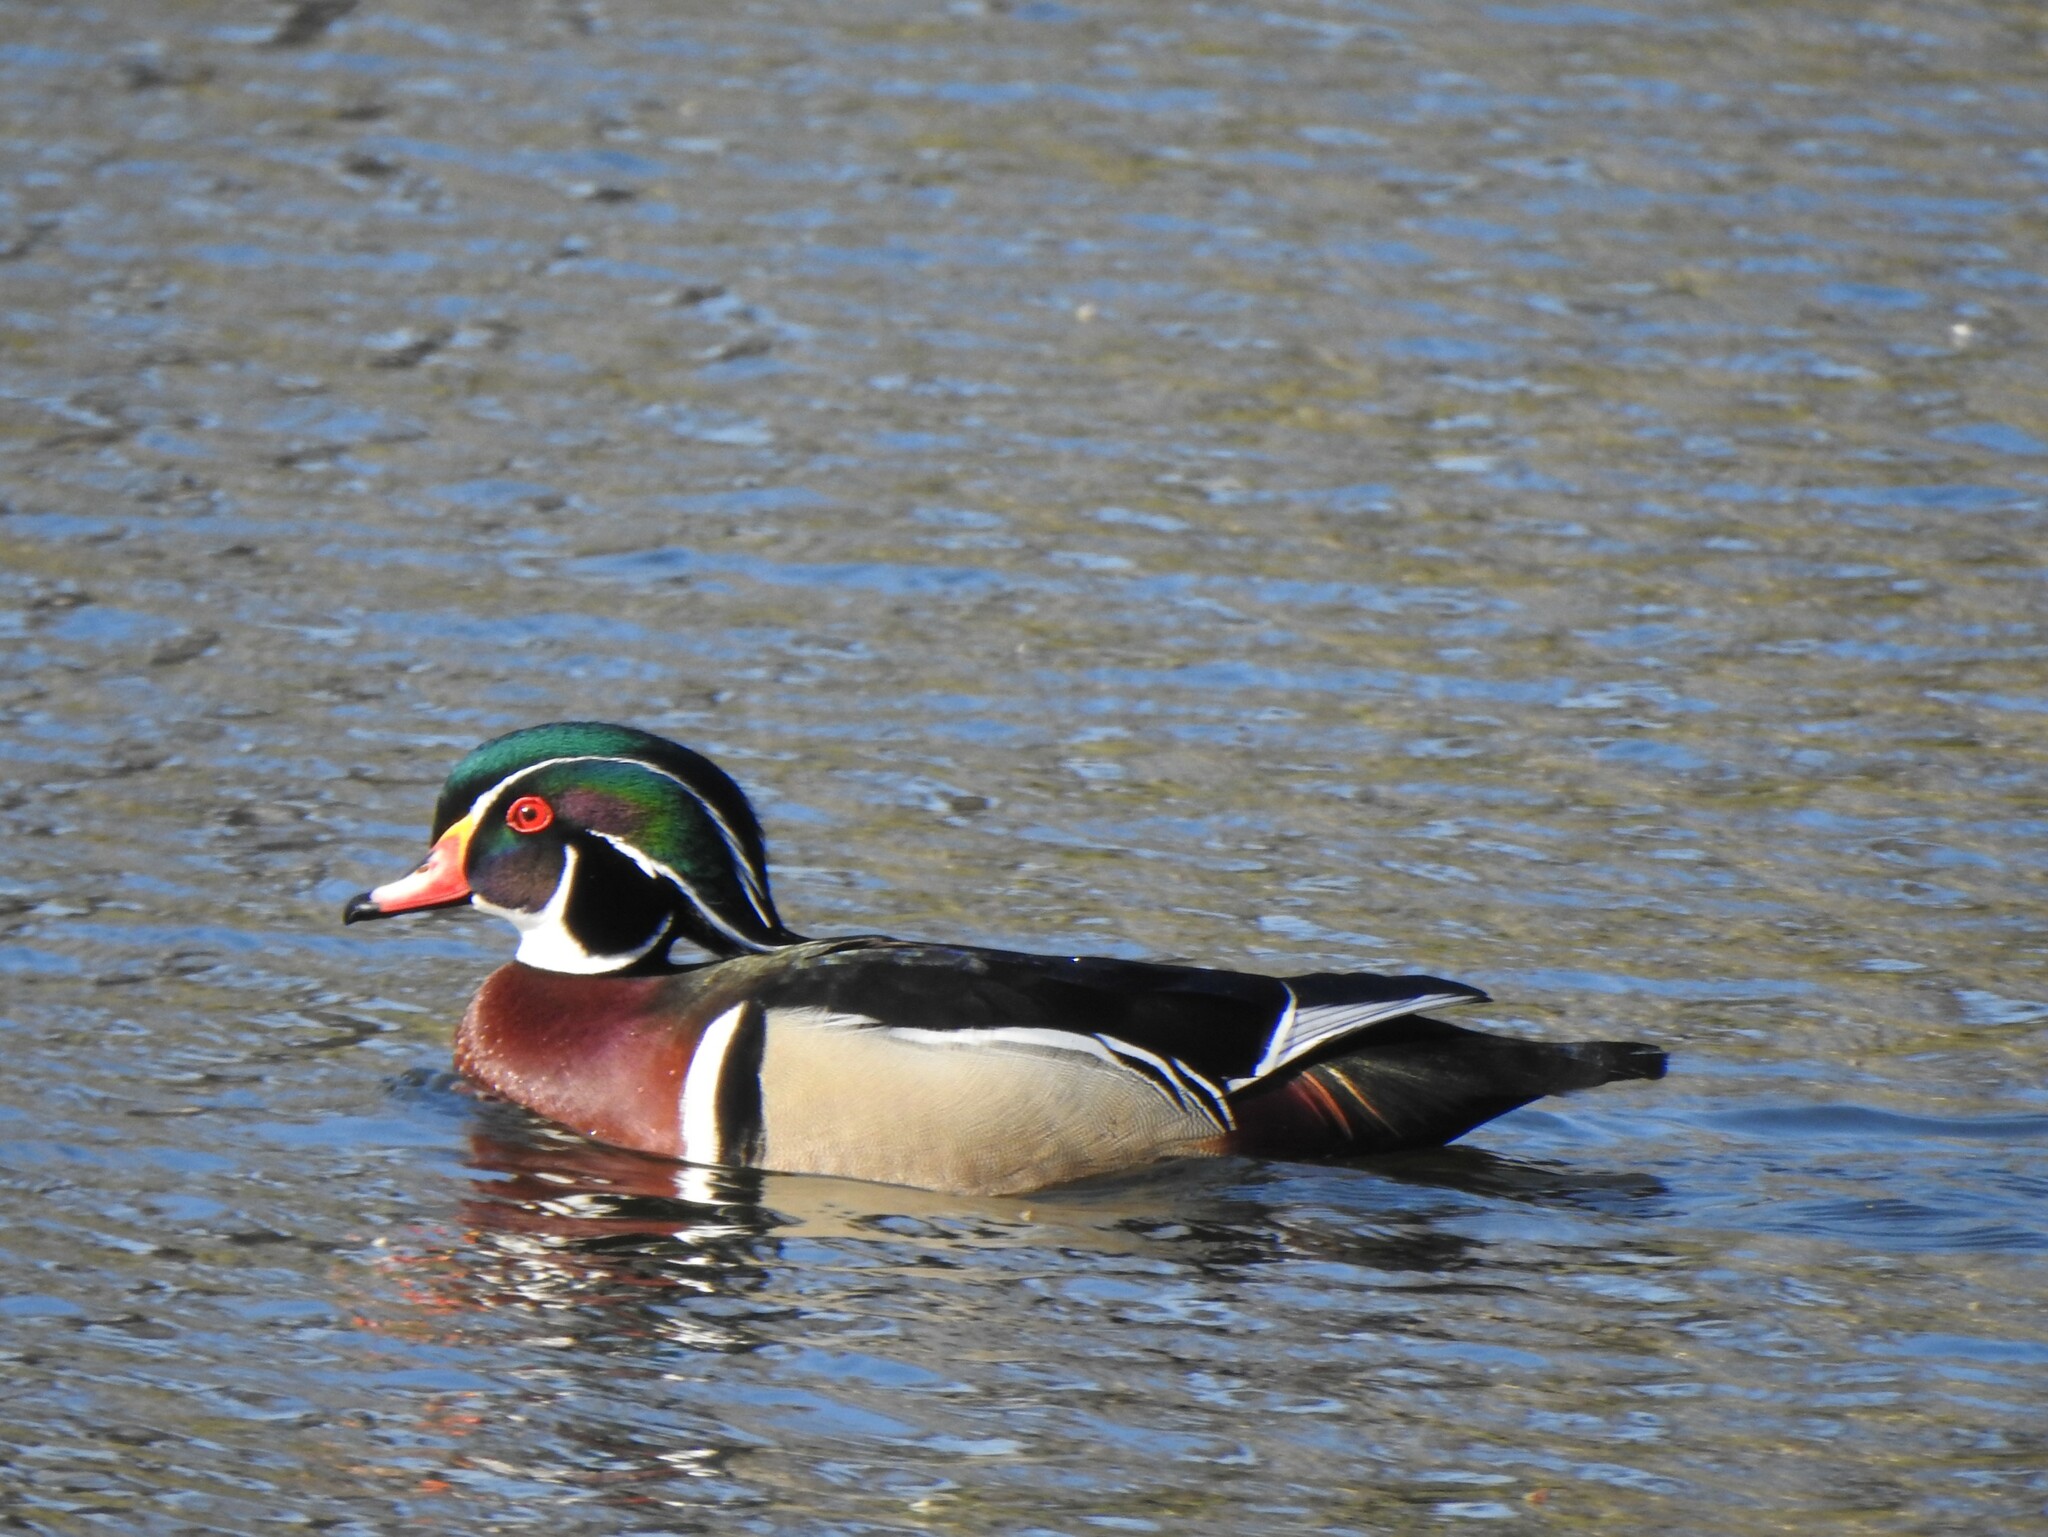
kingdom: Animalia
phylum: Chordata
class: Aves
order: Anseriformes
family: Anatidae
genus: Aix
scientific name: Aix sponsa
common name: Wood duck
